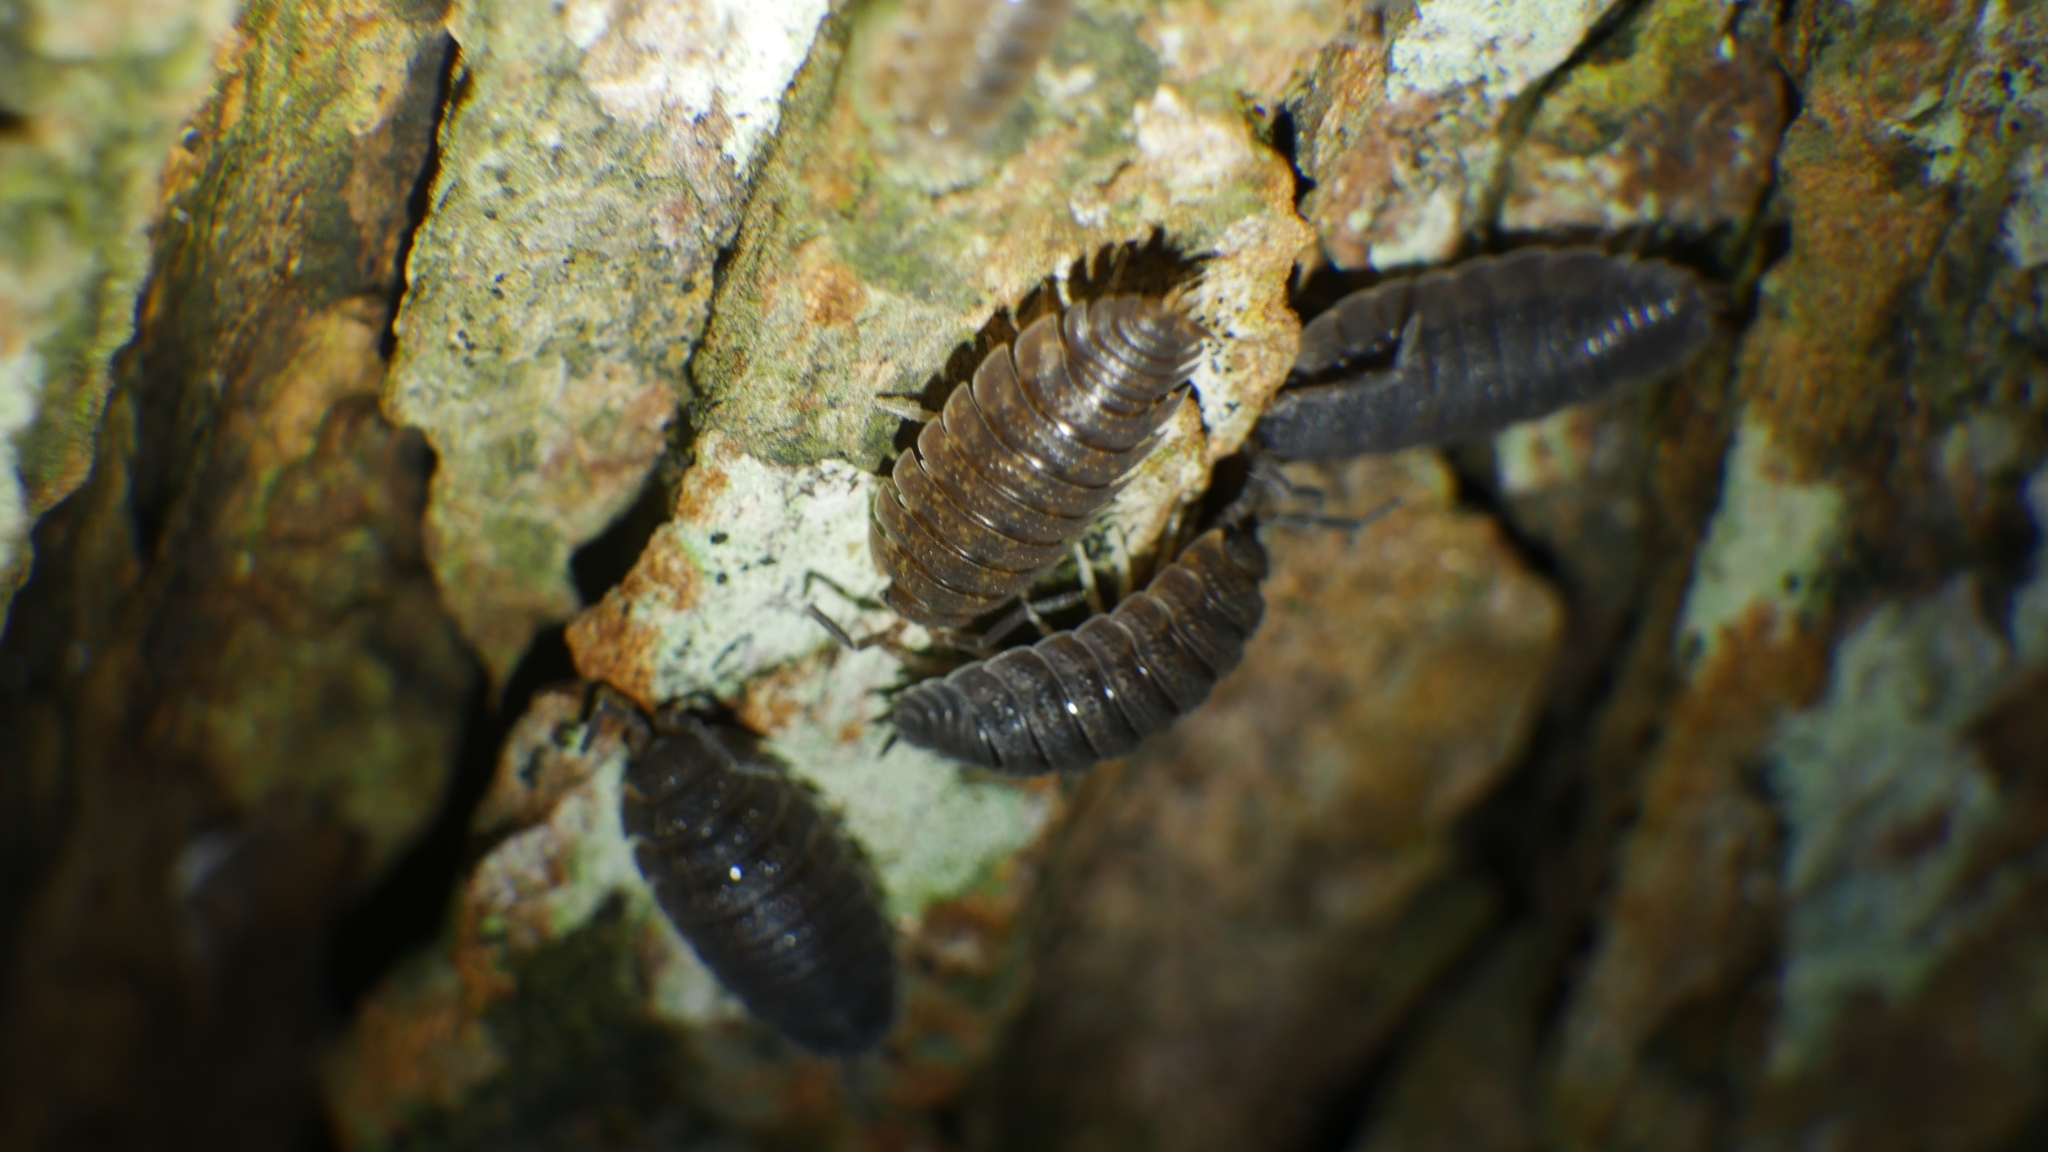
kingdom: Animalia
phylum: Arthropoda
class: Malacostraca
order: Isopoda
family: Porcellionidae
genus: Porcellio
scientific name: Porcellio scaber
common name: Common rough woodlouse
